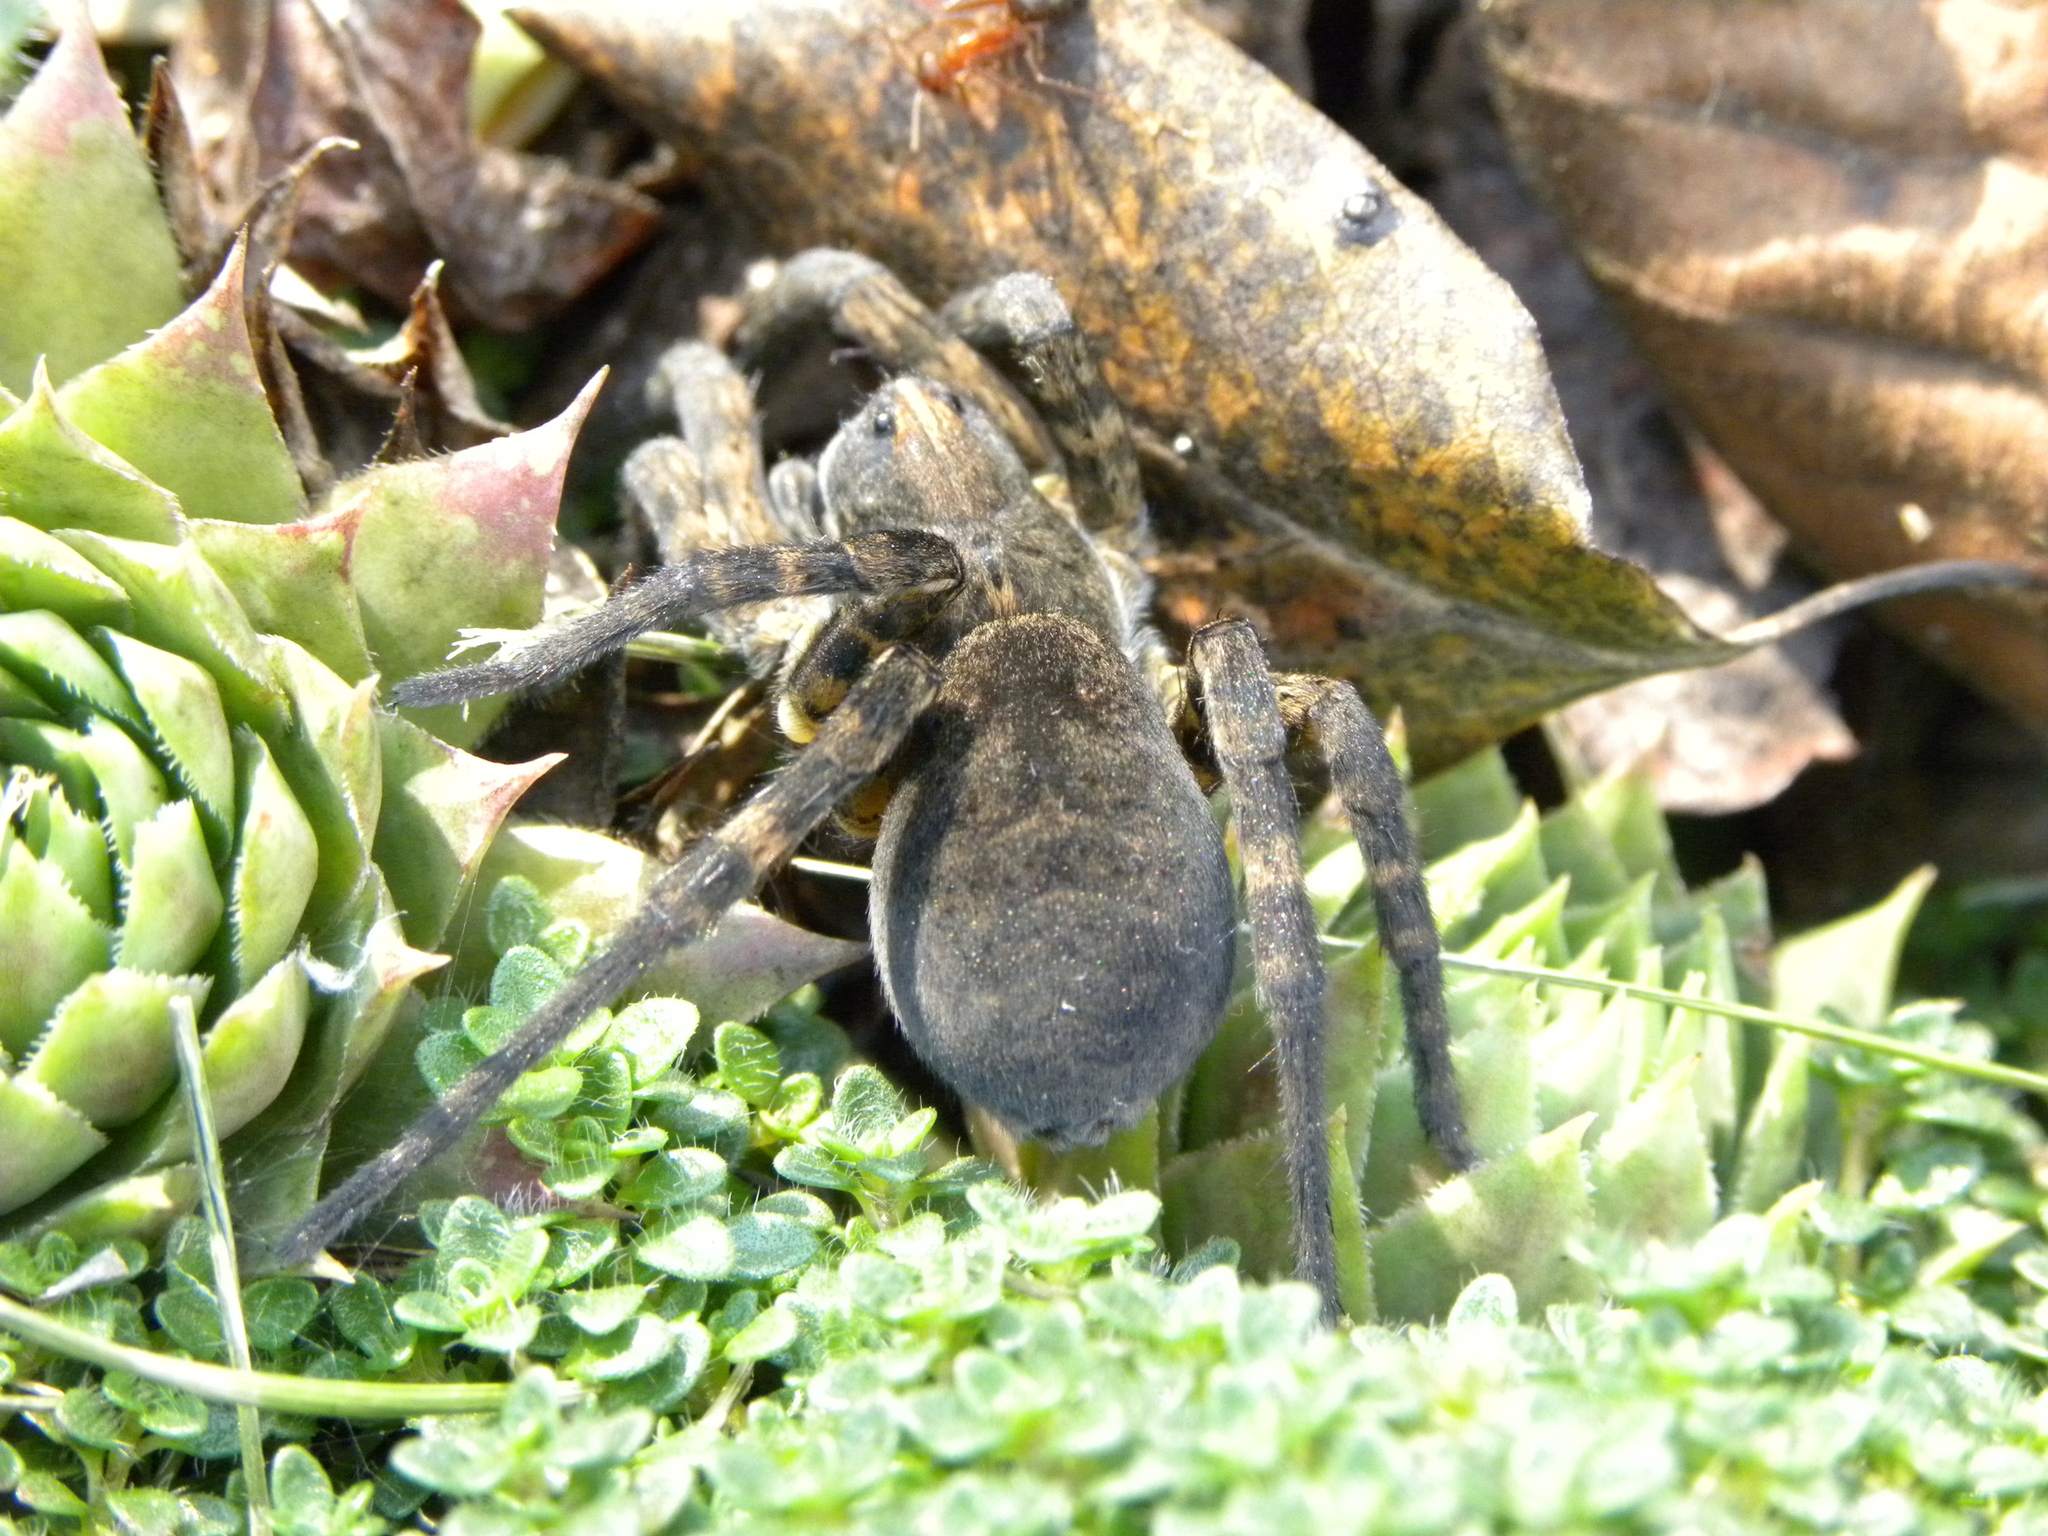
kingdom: Animalia
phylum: Arthropoda
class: Arachnida
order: Araneae
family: Lycosidae
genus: Tigrosa
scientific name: Tigrosa georgicola
